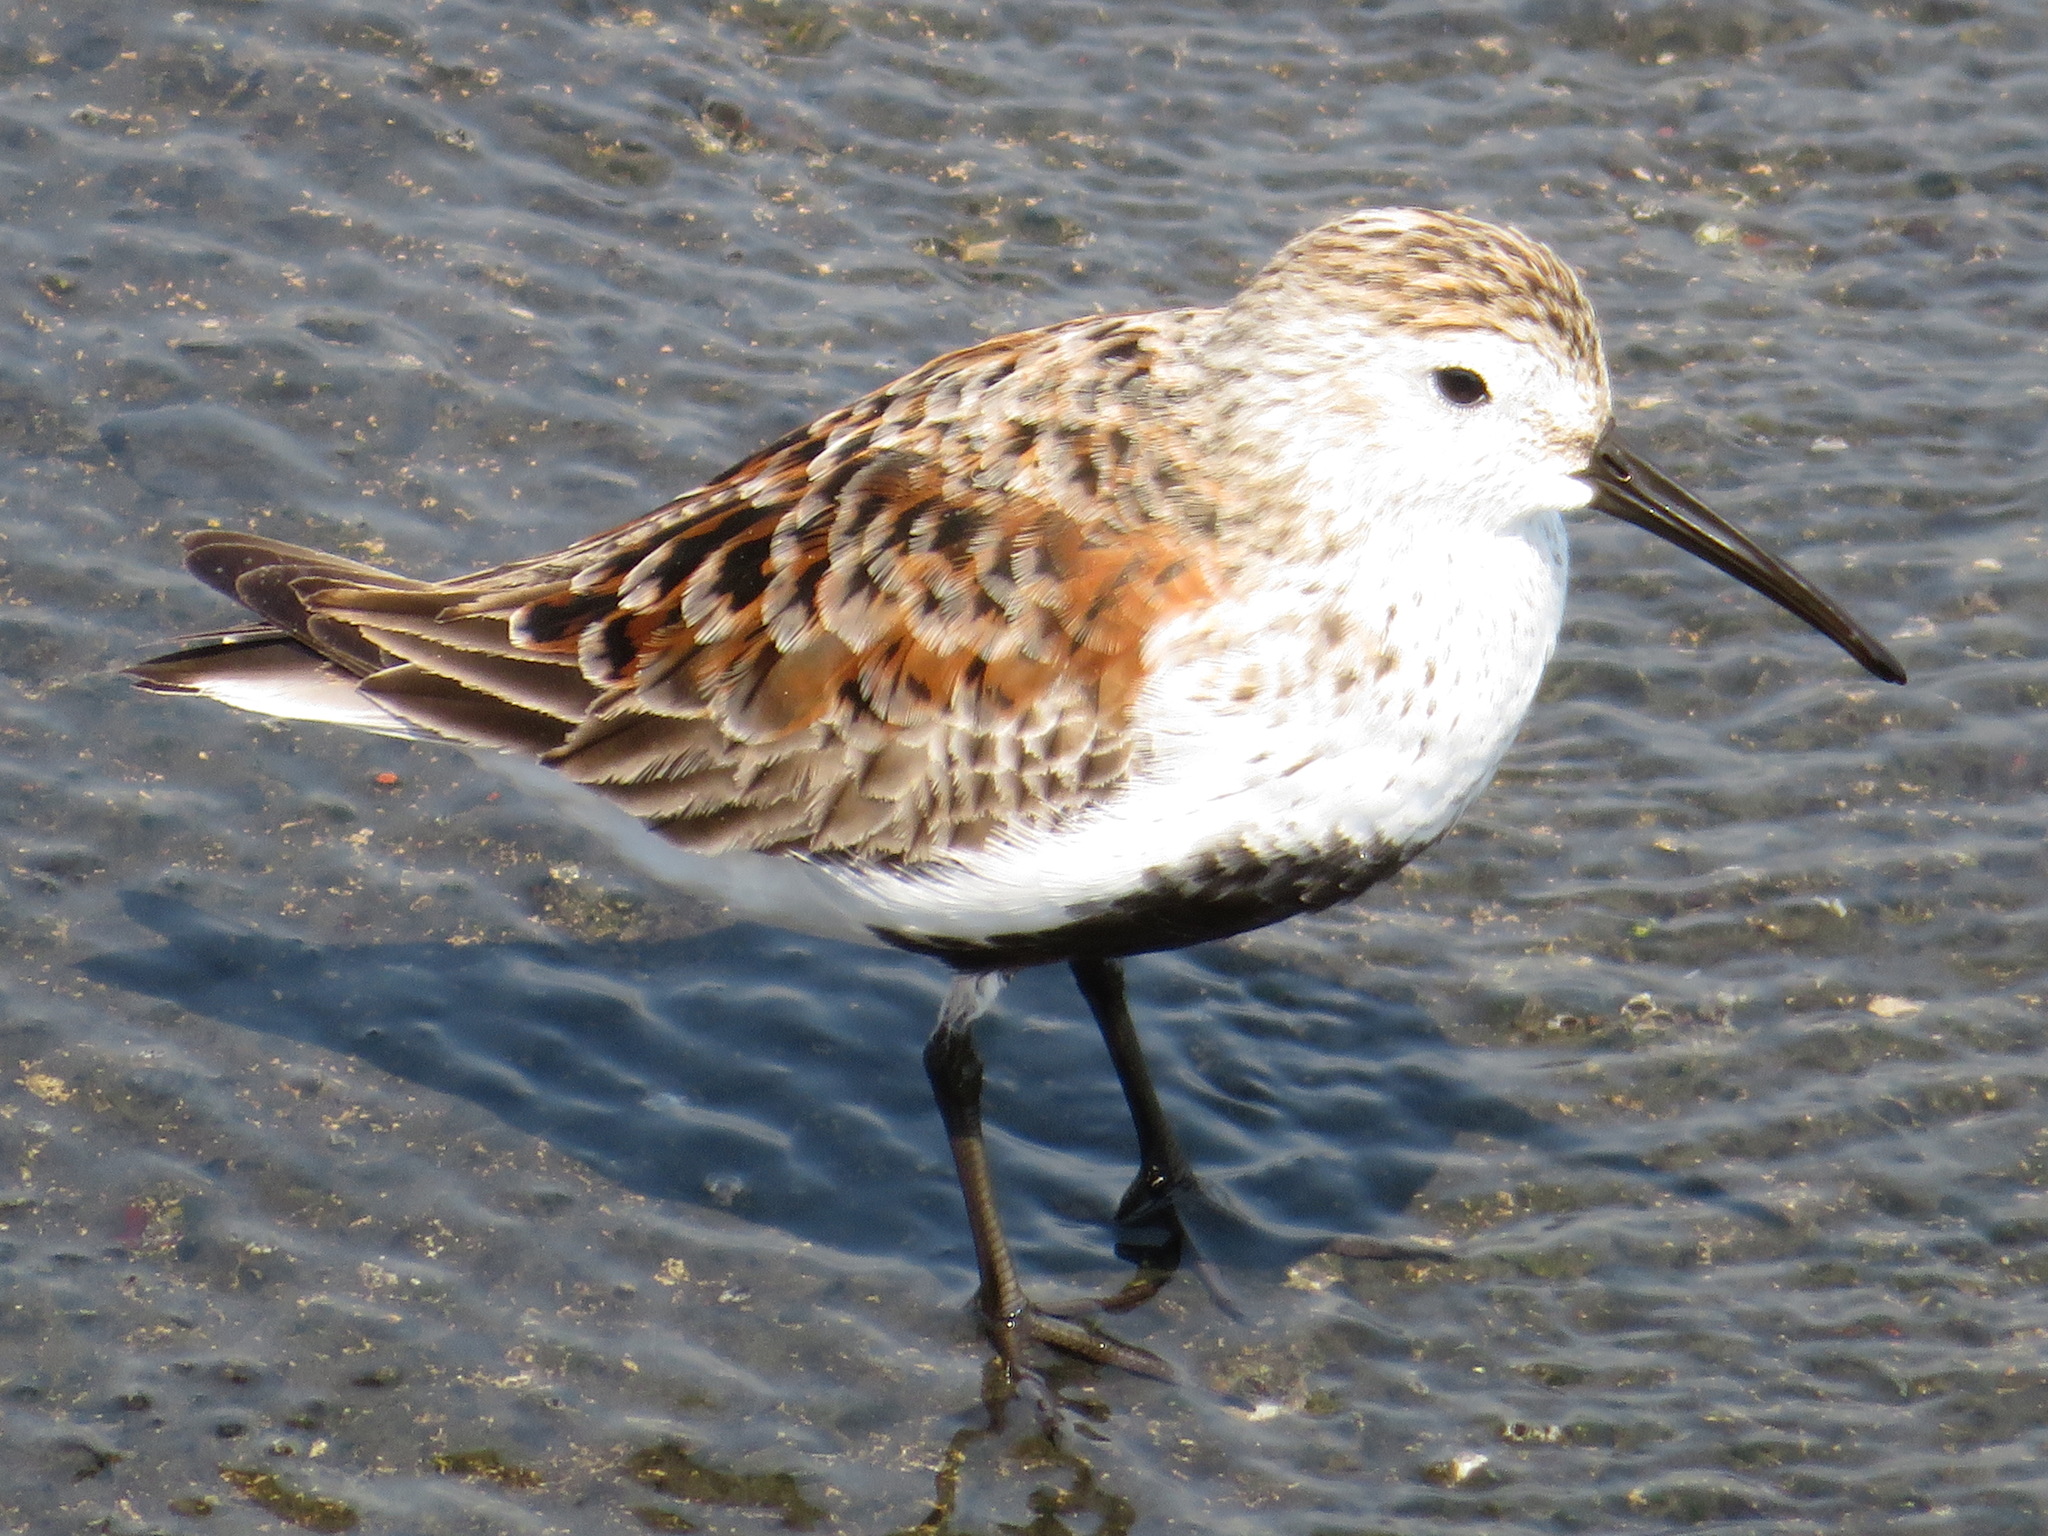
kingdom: Animalia
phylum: Chordata
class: Aves
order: Charadriiformes
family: Scolopacidae
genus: Calidris
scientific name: Calidris alpina
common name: Dunlin
